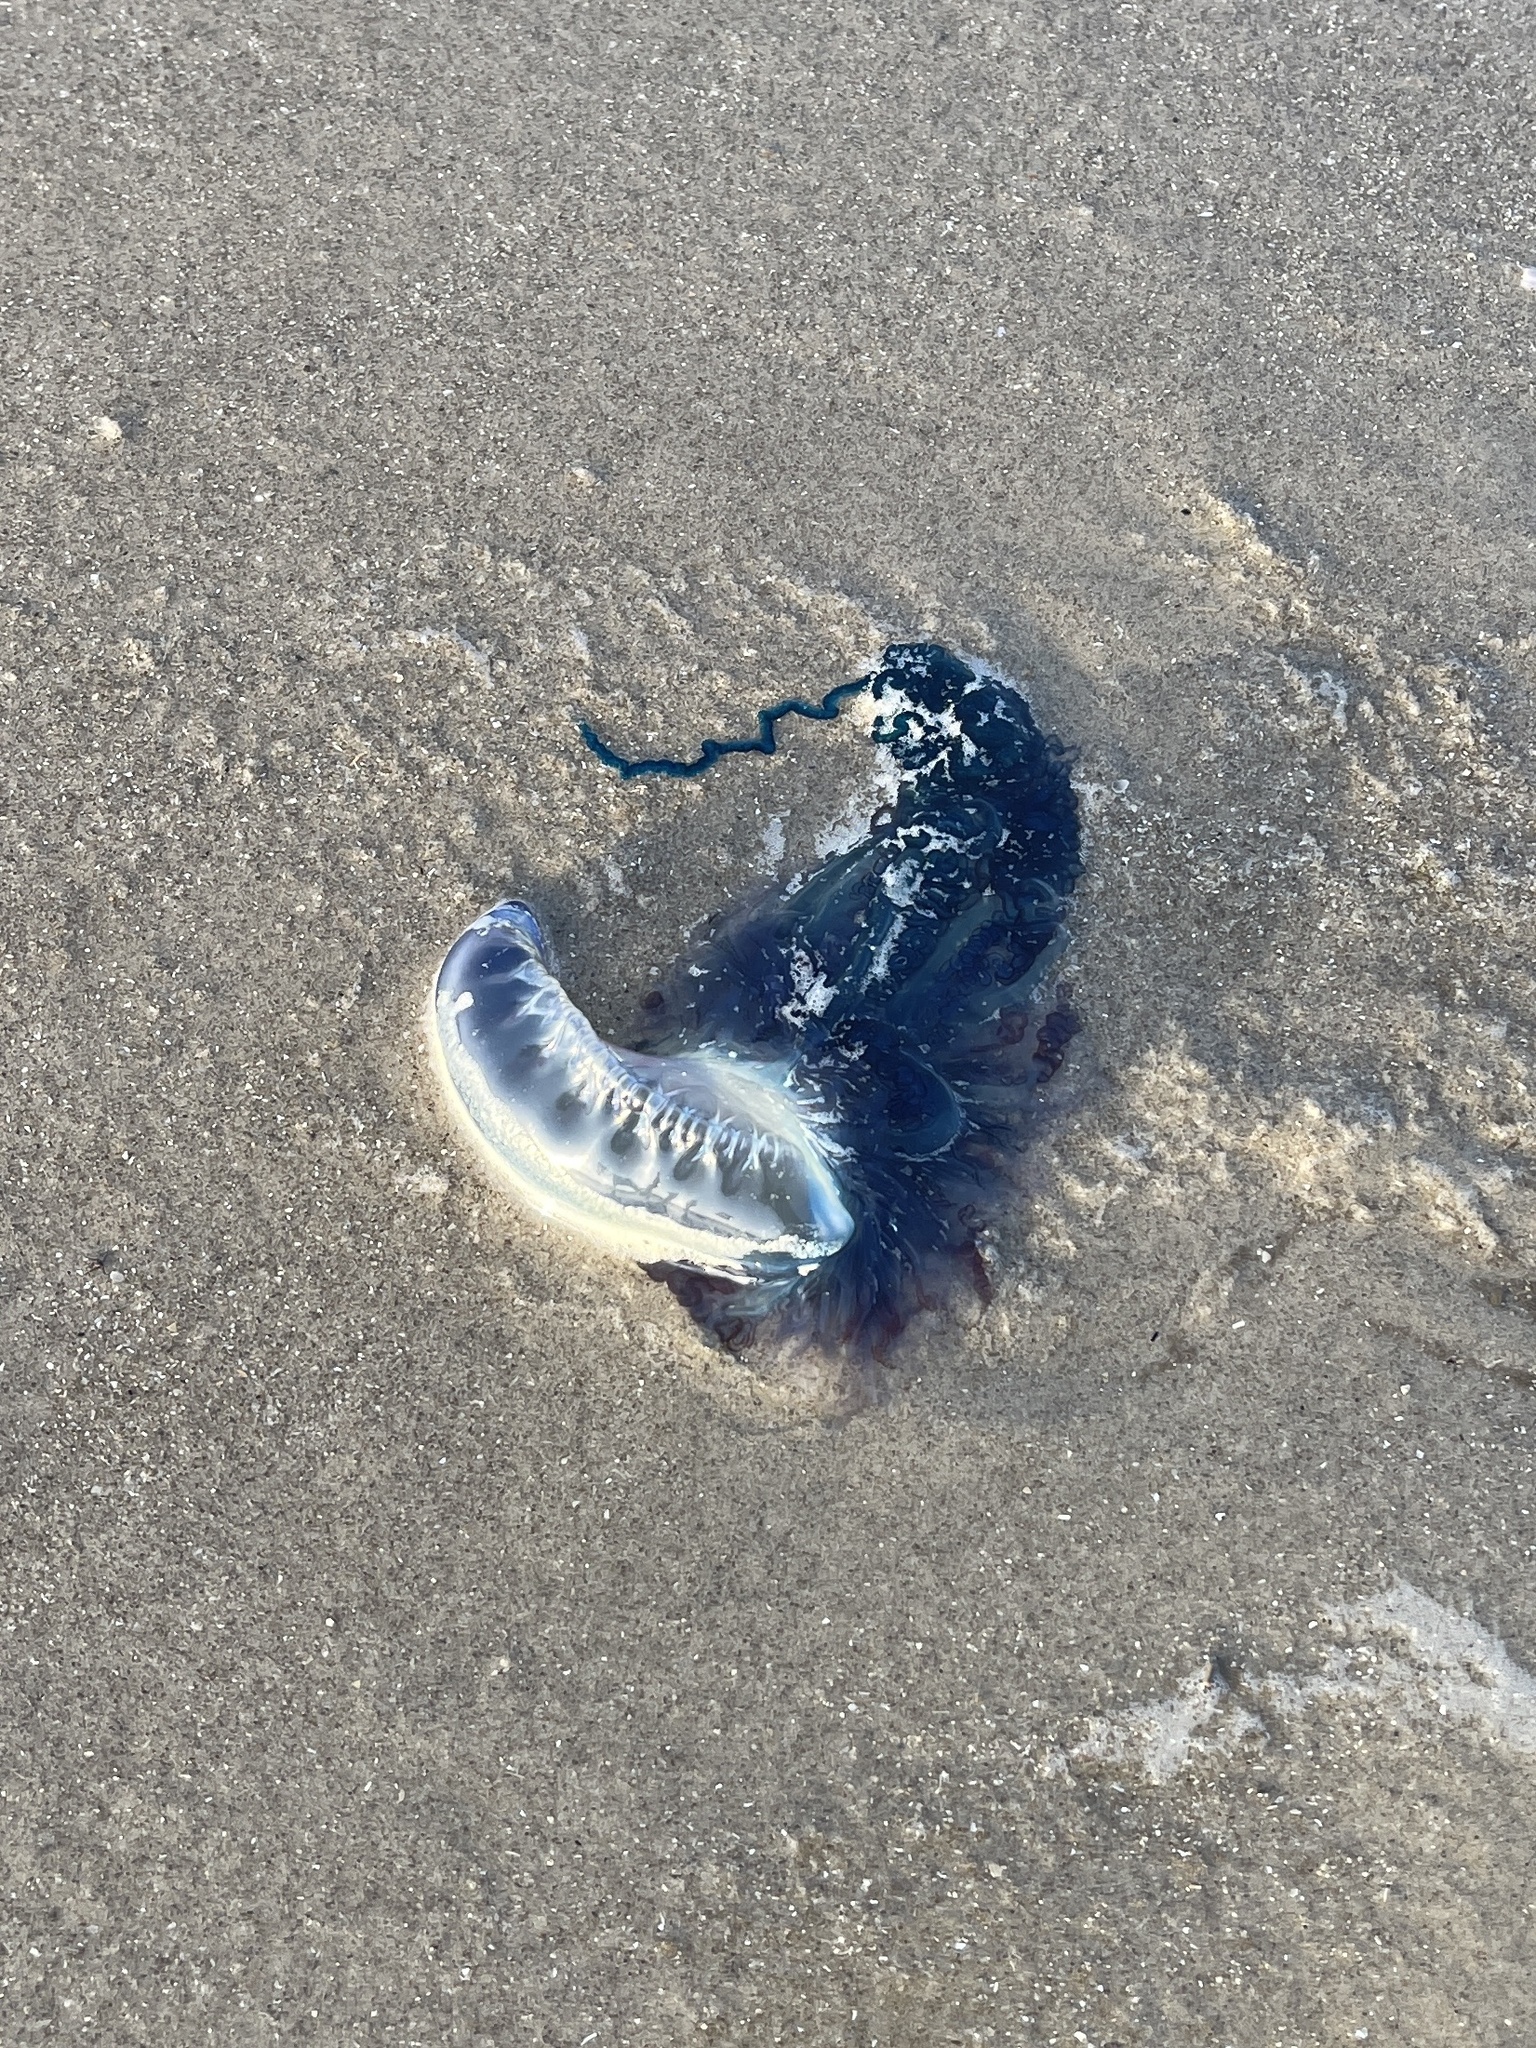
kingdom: Animalia
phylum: Cnidaria
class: Hydrozoa
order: Siphonophorae
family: Physaliidae
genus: Physalia
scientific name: Physalia physalis
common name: Portuguese man-of-war
